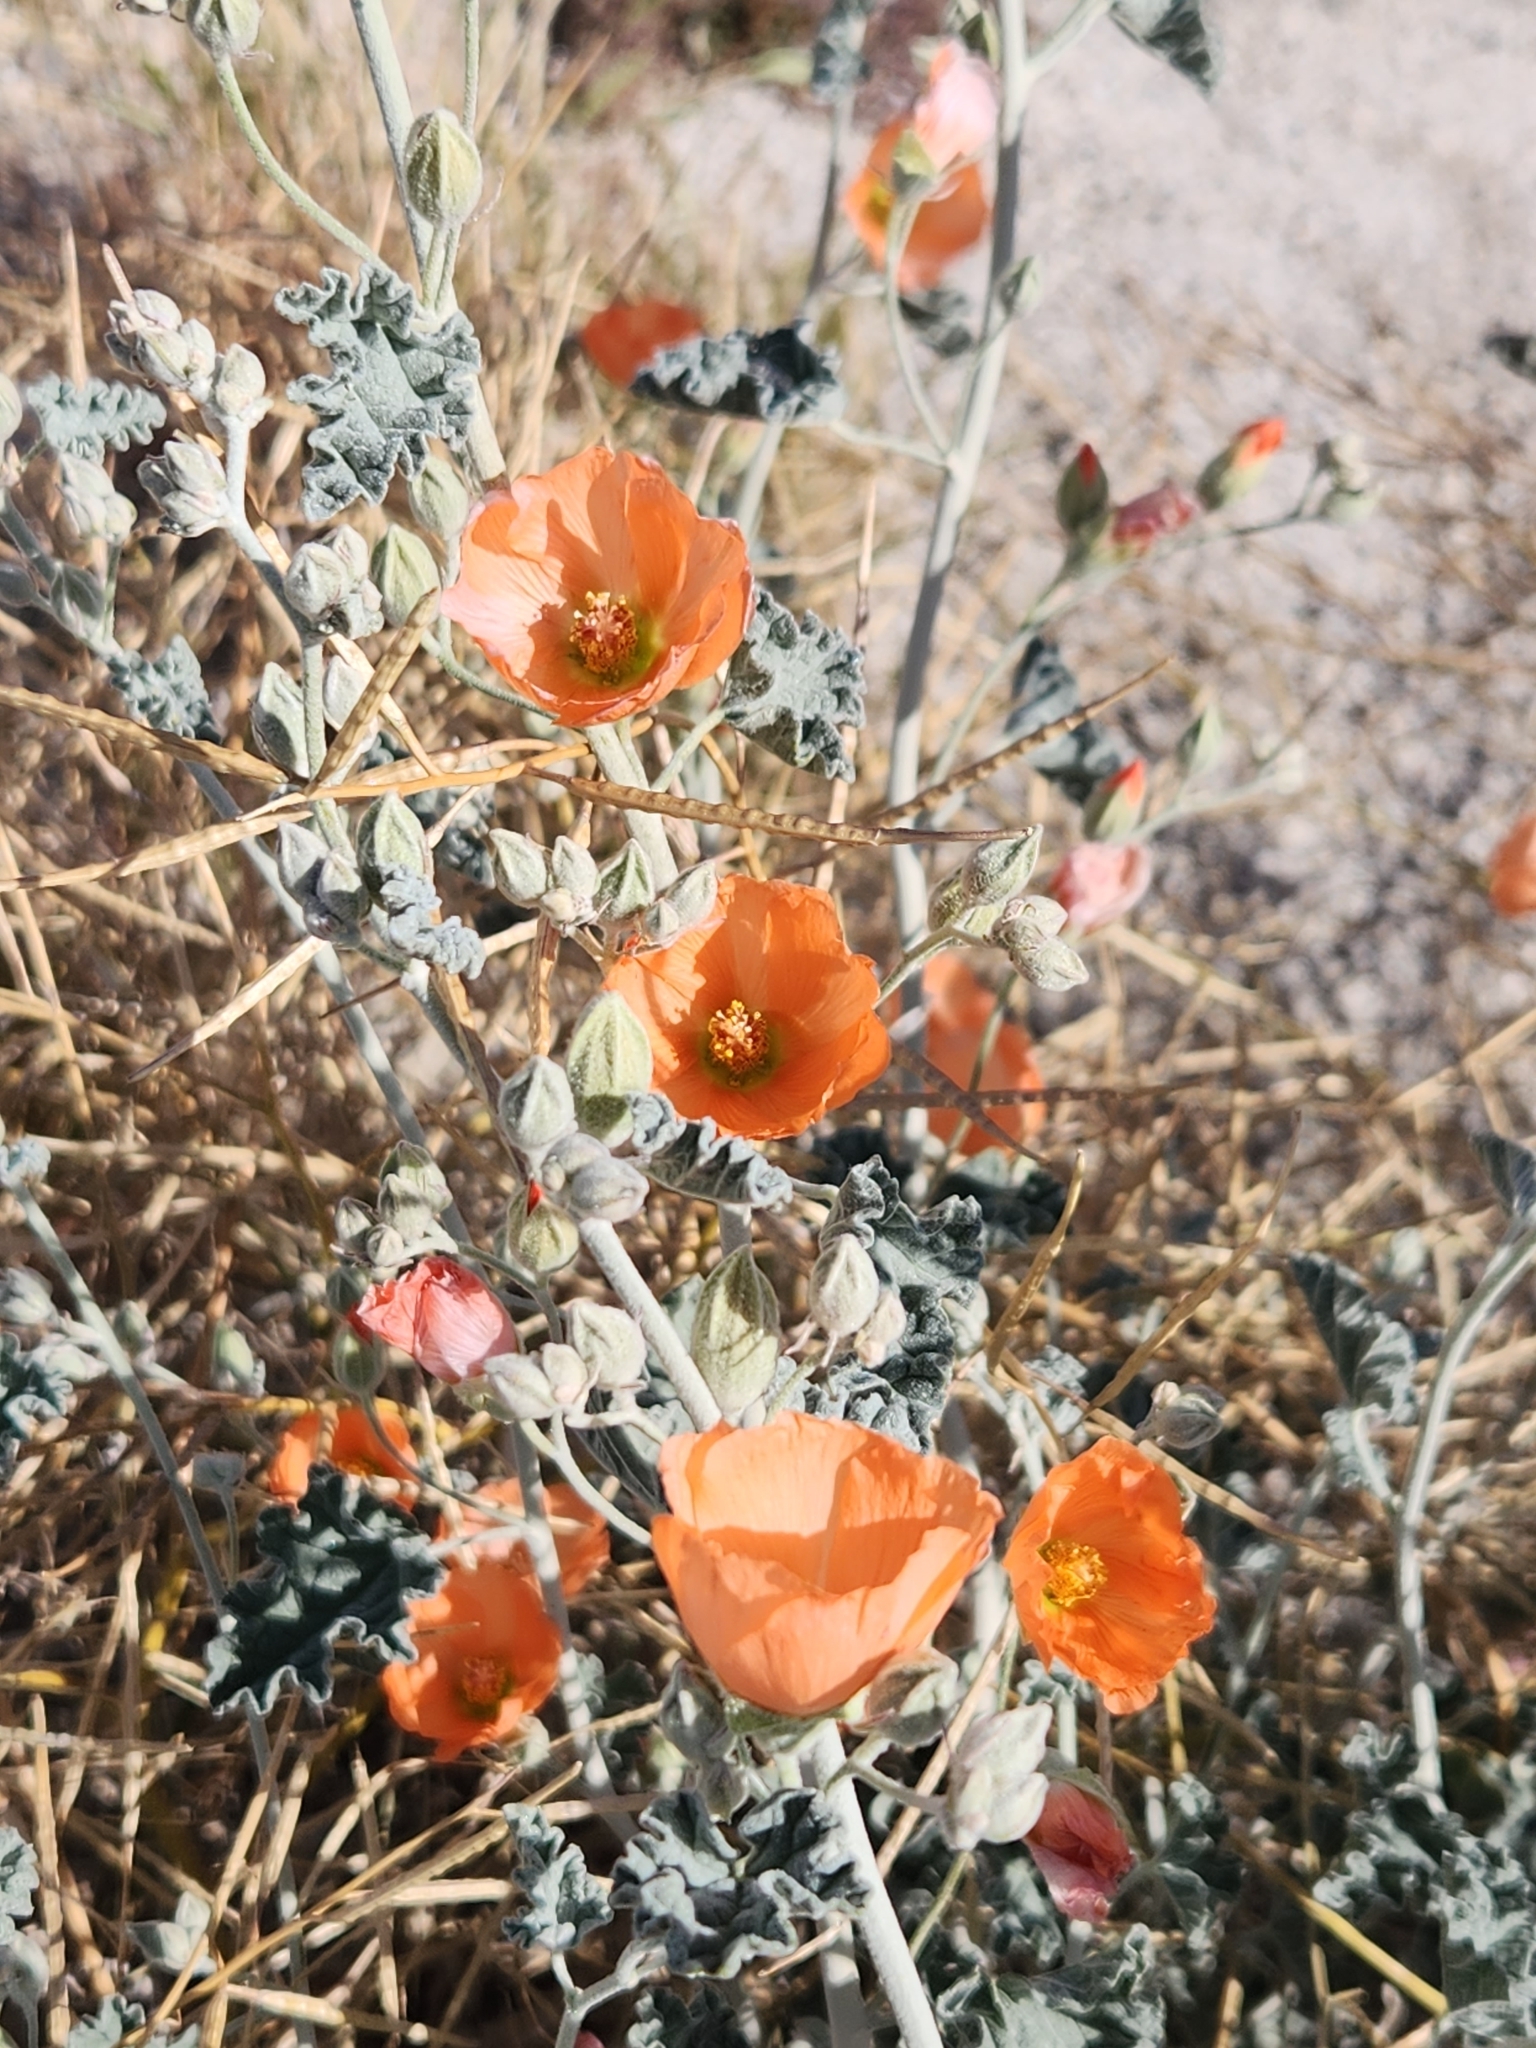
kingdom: Plantae
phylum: Tracheophyta
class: Magnoliopsida
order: Malvales
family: Malvaceae
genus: Sphaeralcea
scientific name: Sphaeralcea ambigua
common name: Apricot globe-mallow
